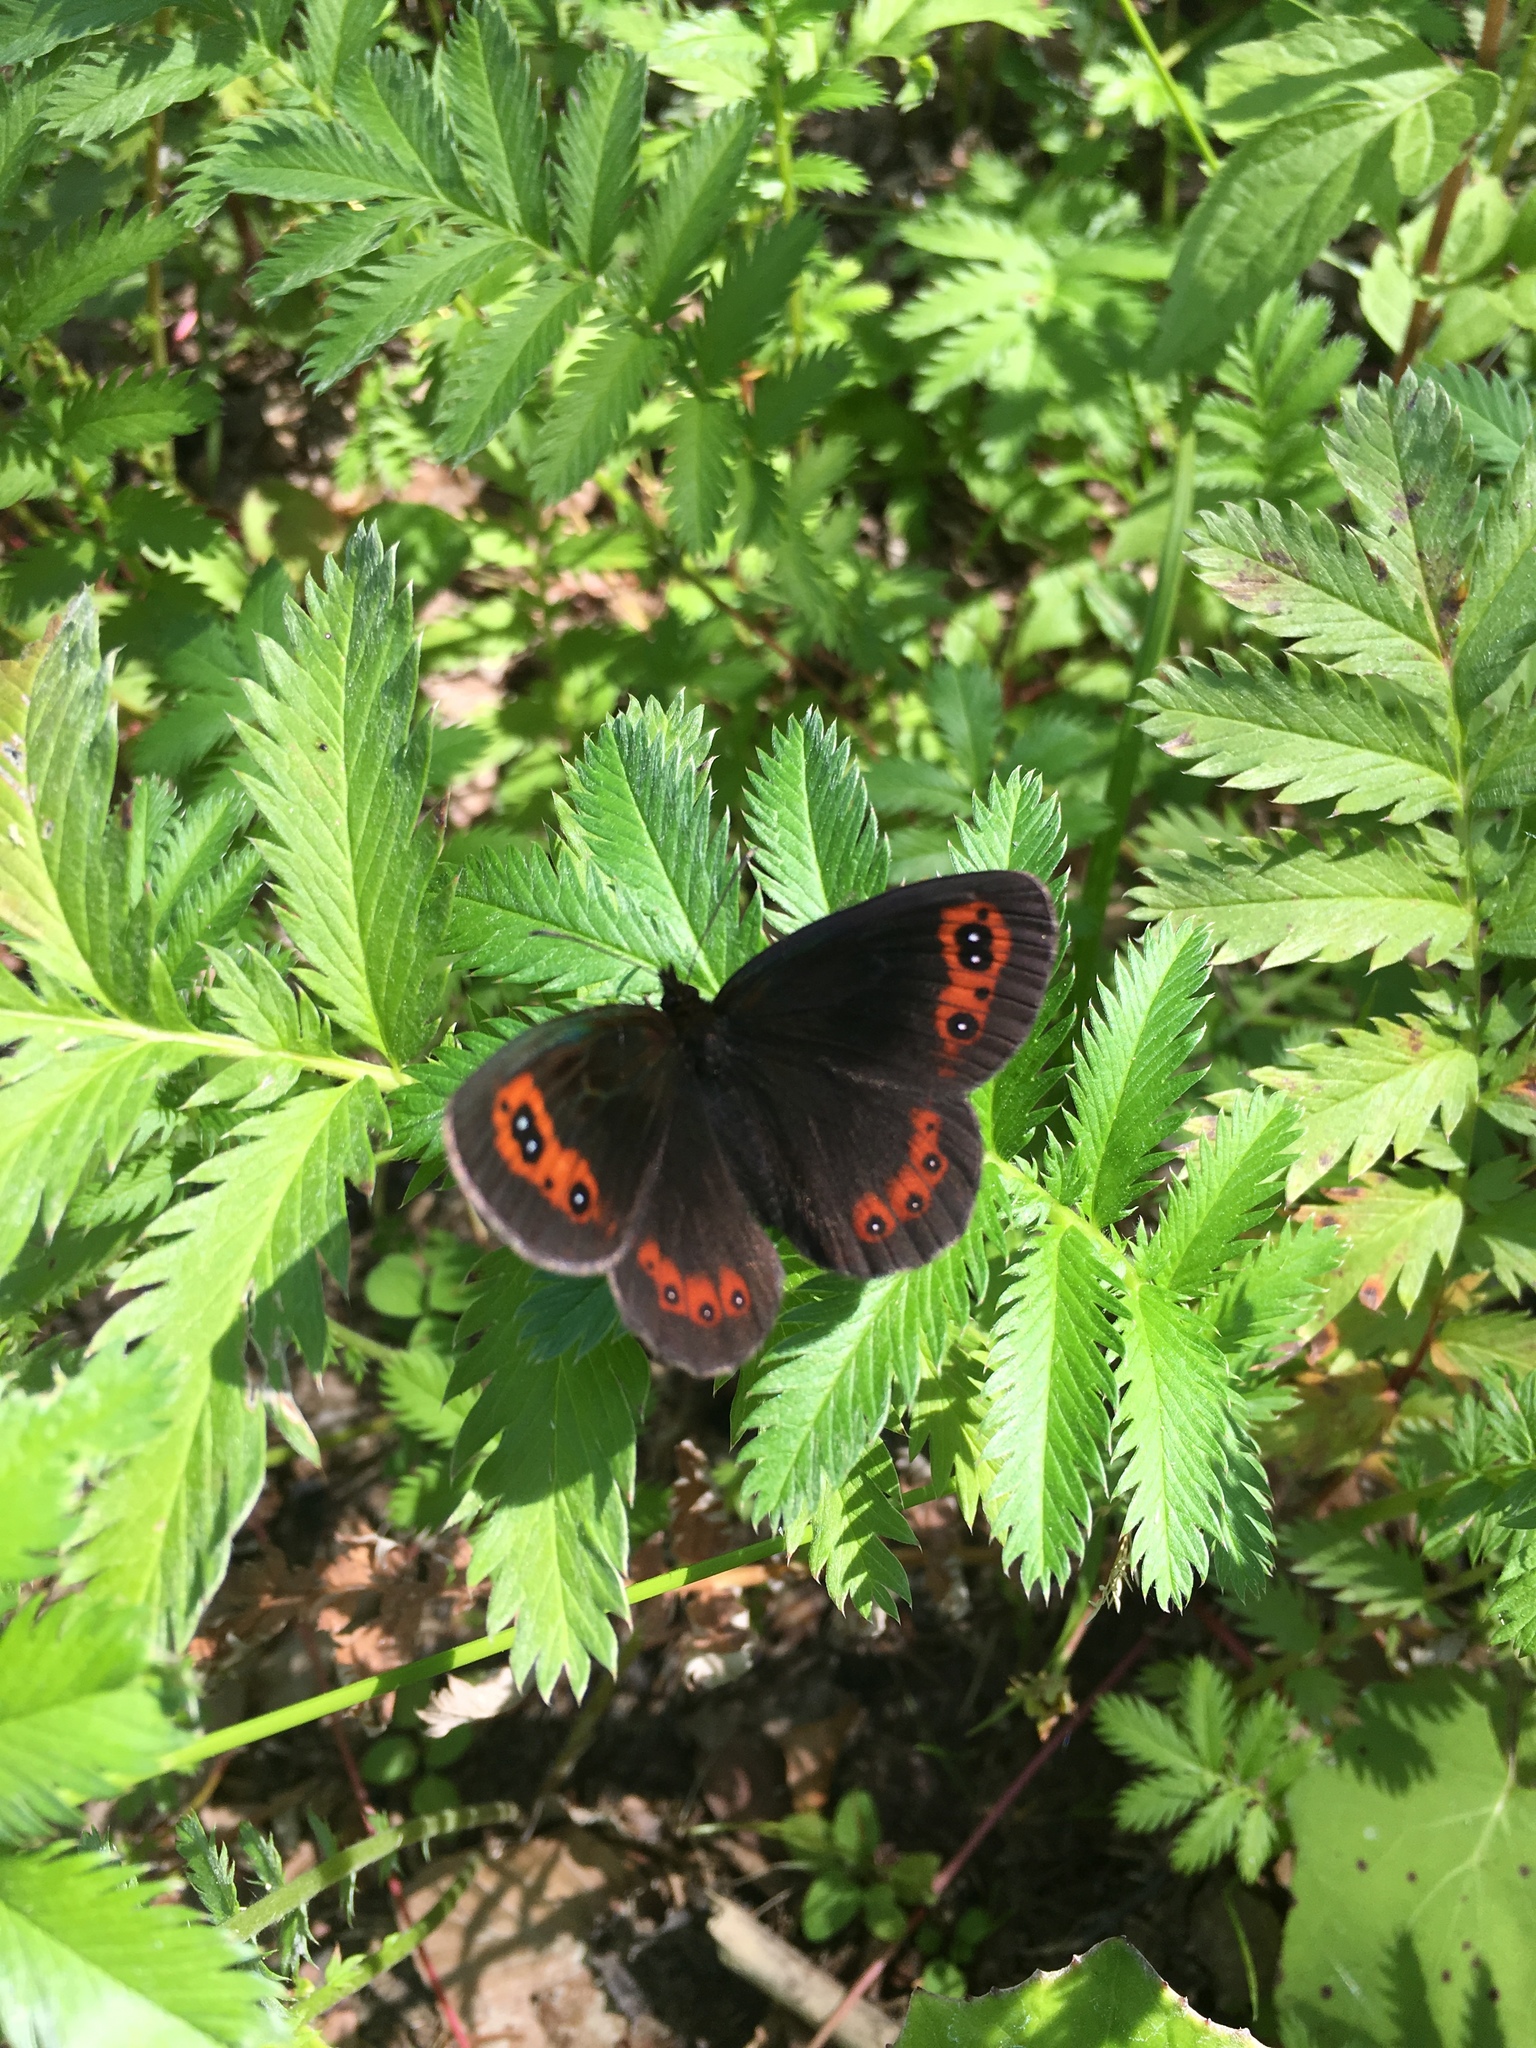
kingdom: Animalia
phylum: Arthropoda
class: Insecta
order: Lepidoptera
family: Nymphalidae
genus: Erebia
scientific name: Erebia aethiops
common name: Scotch argus
